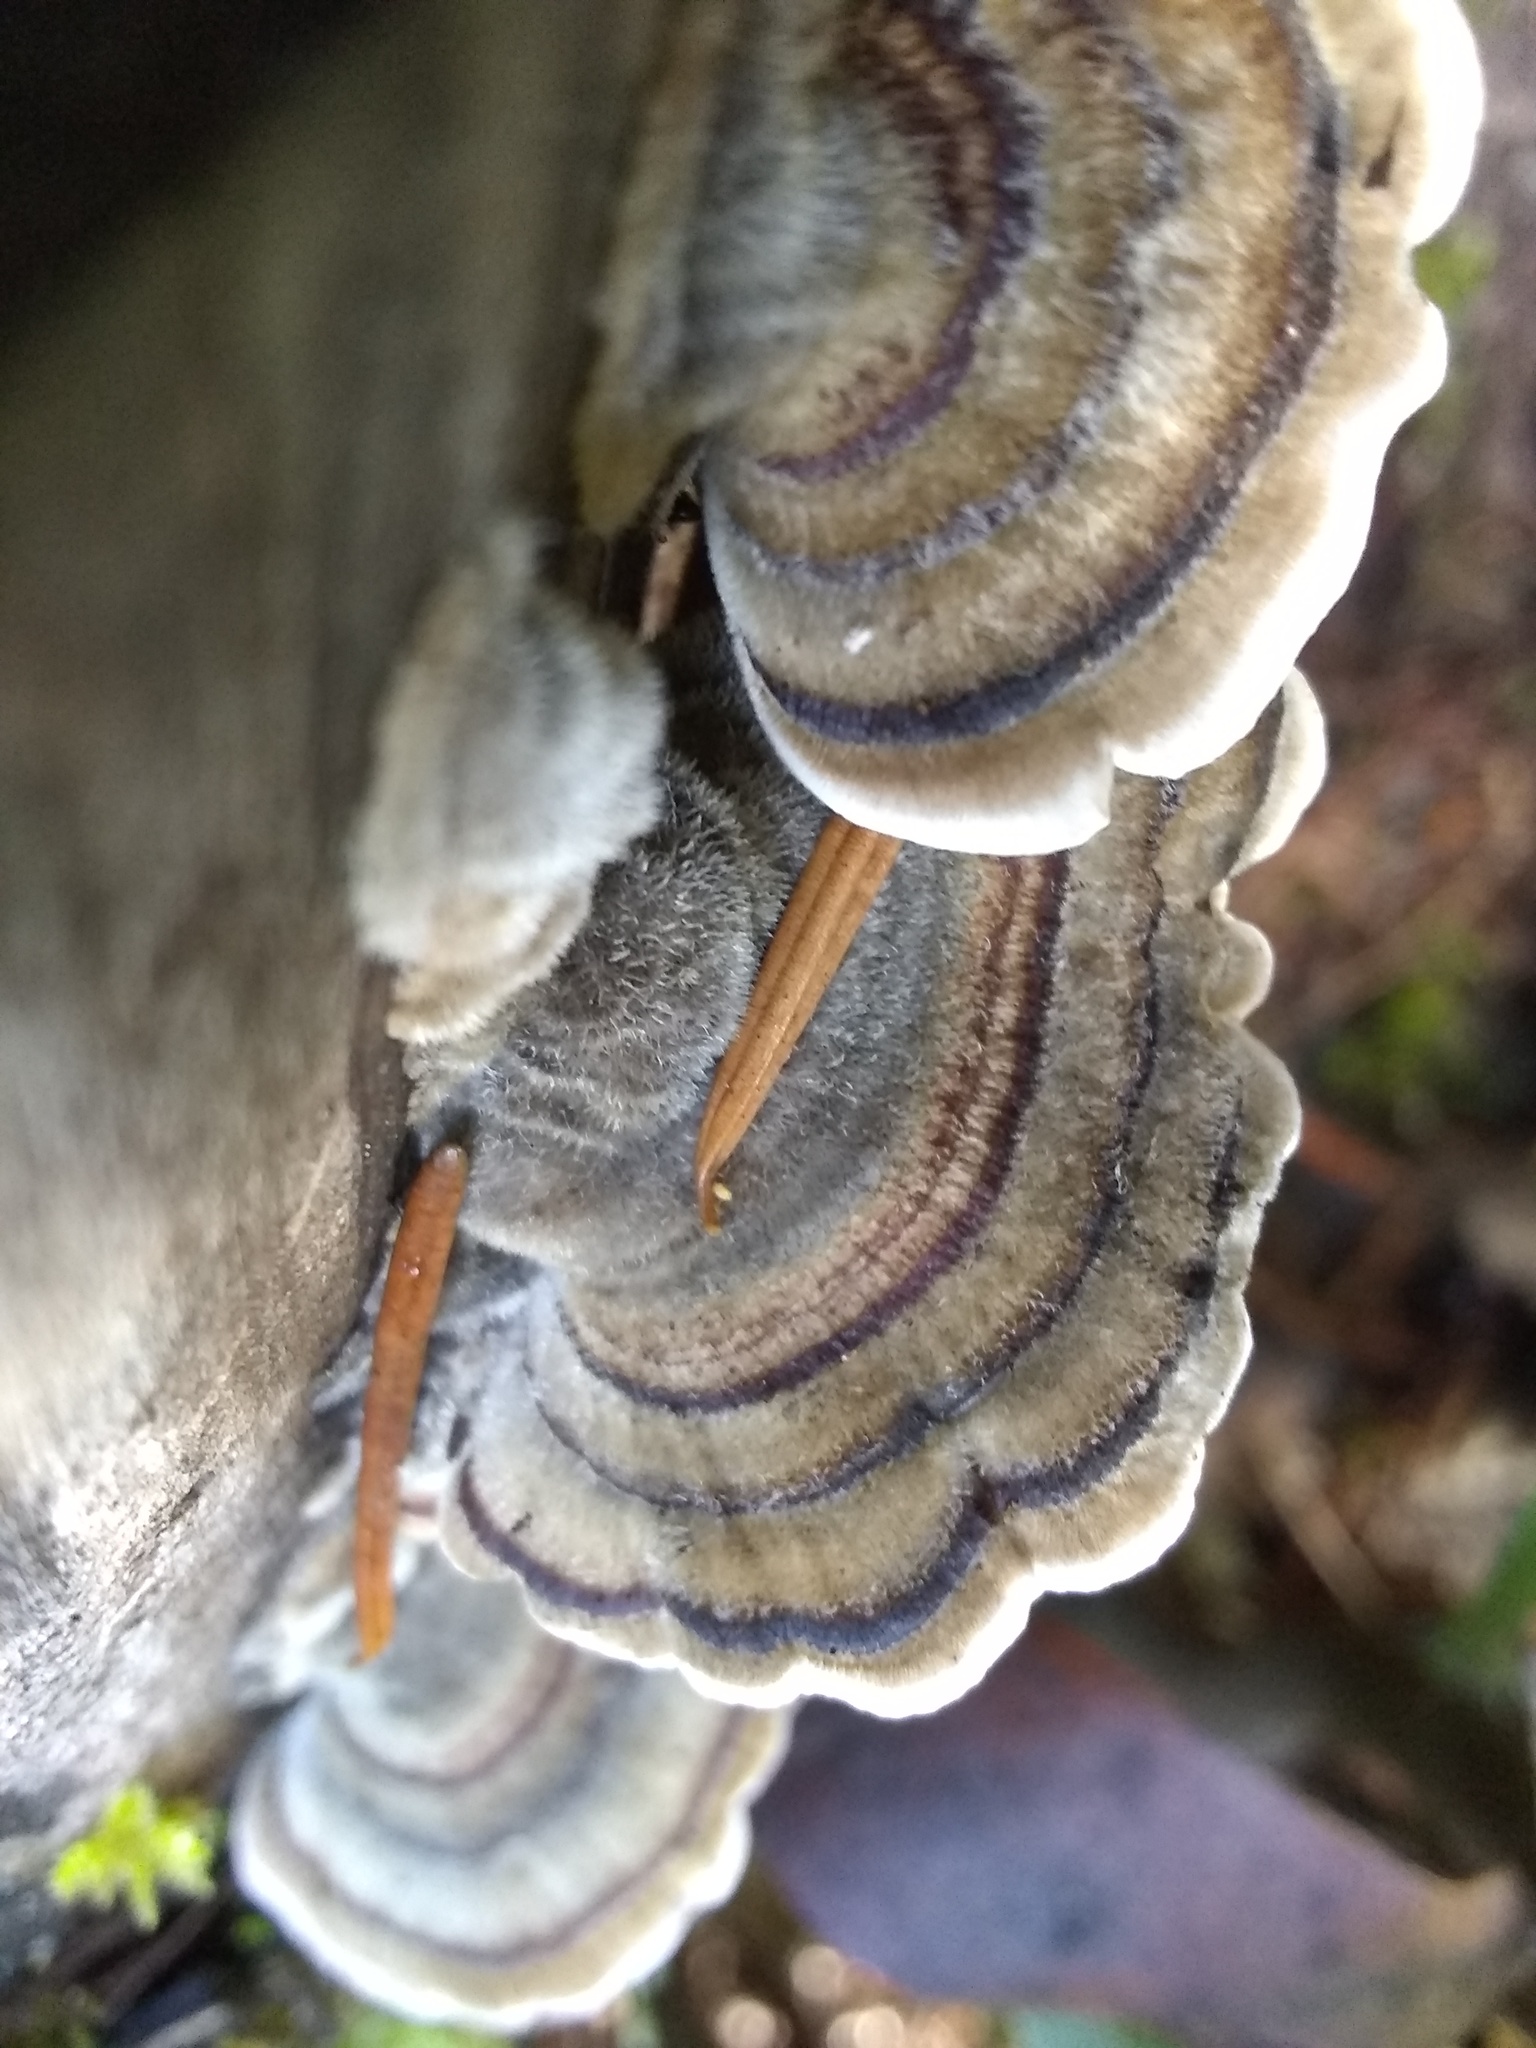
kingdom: Fungi
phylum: Basidiomycota
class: Agaricomycetes
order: Polyporales
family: Polyporaceae
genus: Trametes
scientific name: Trametes versicolor
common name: Turkeytail
